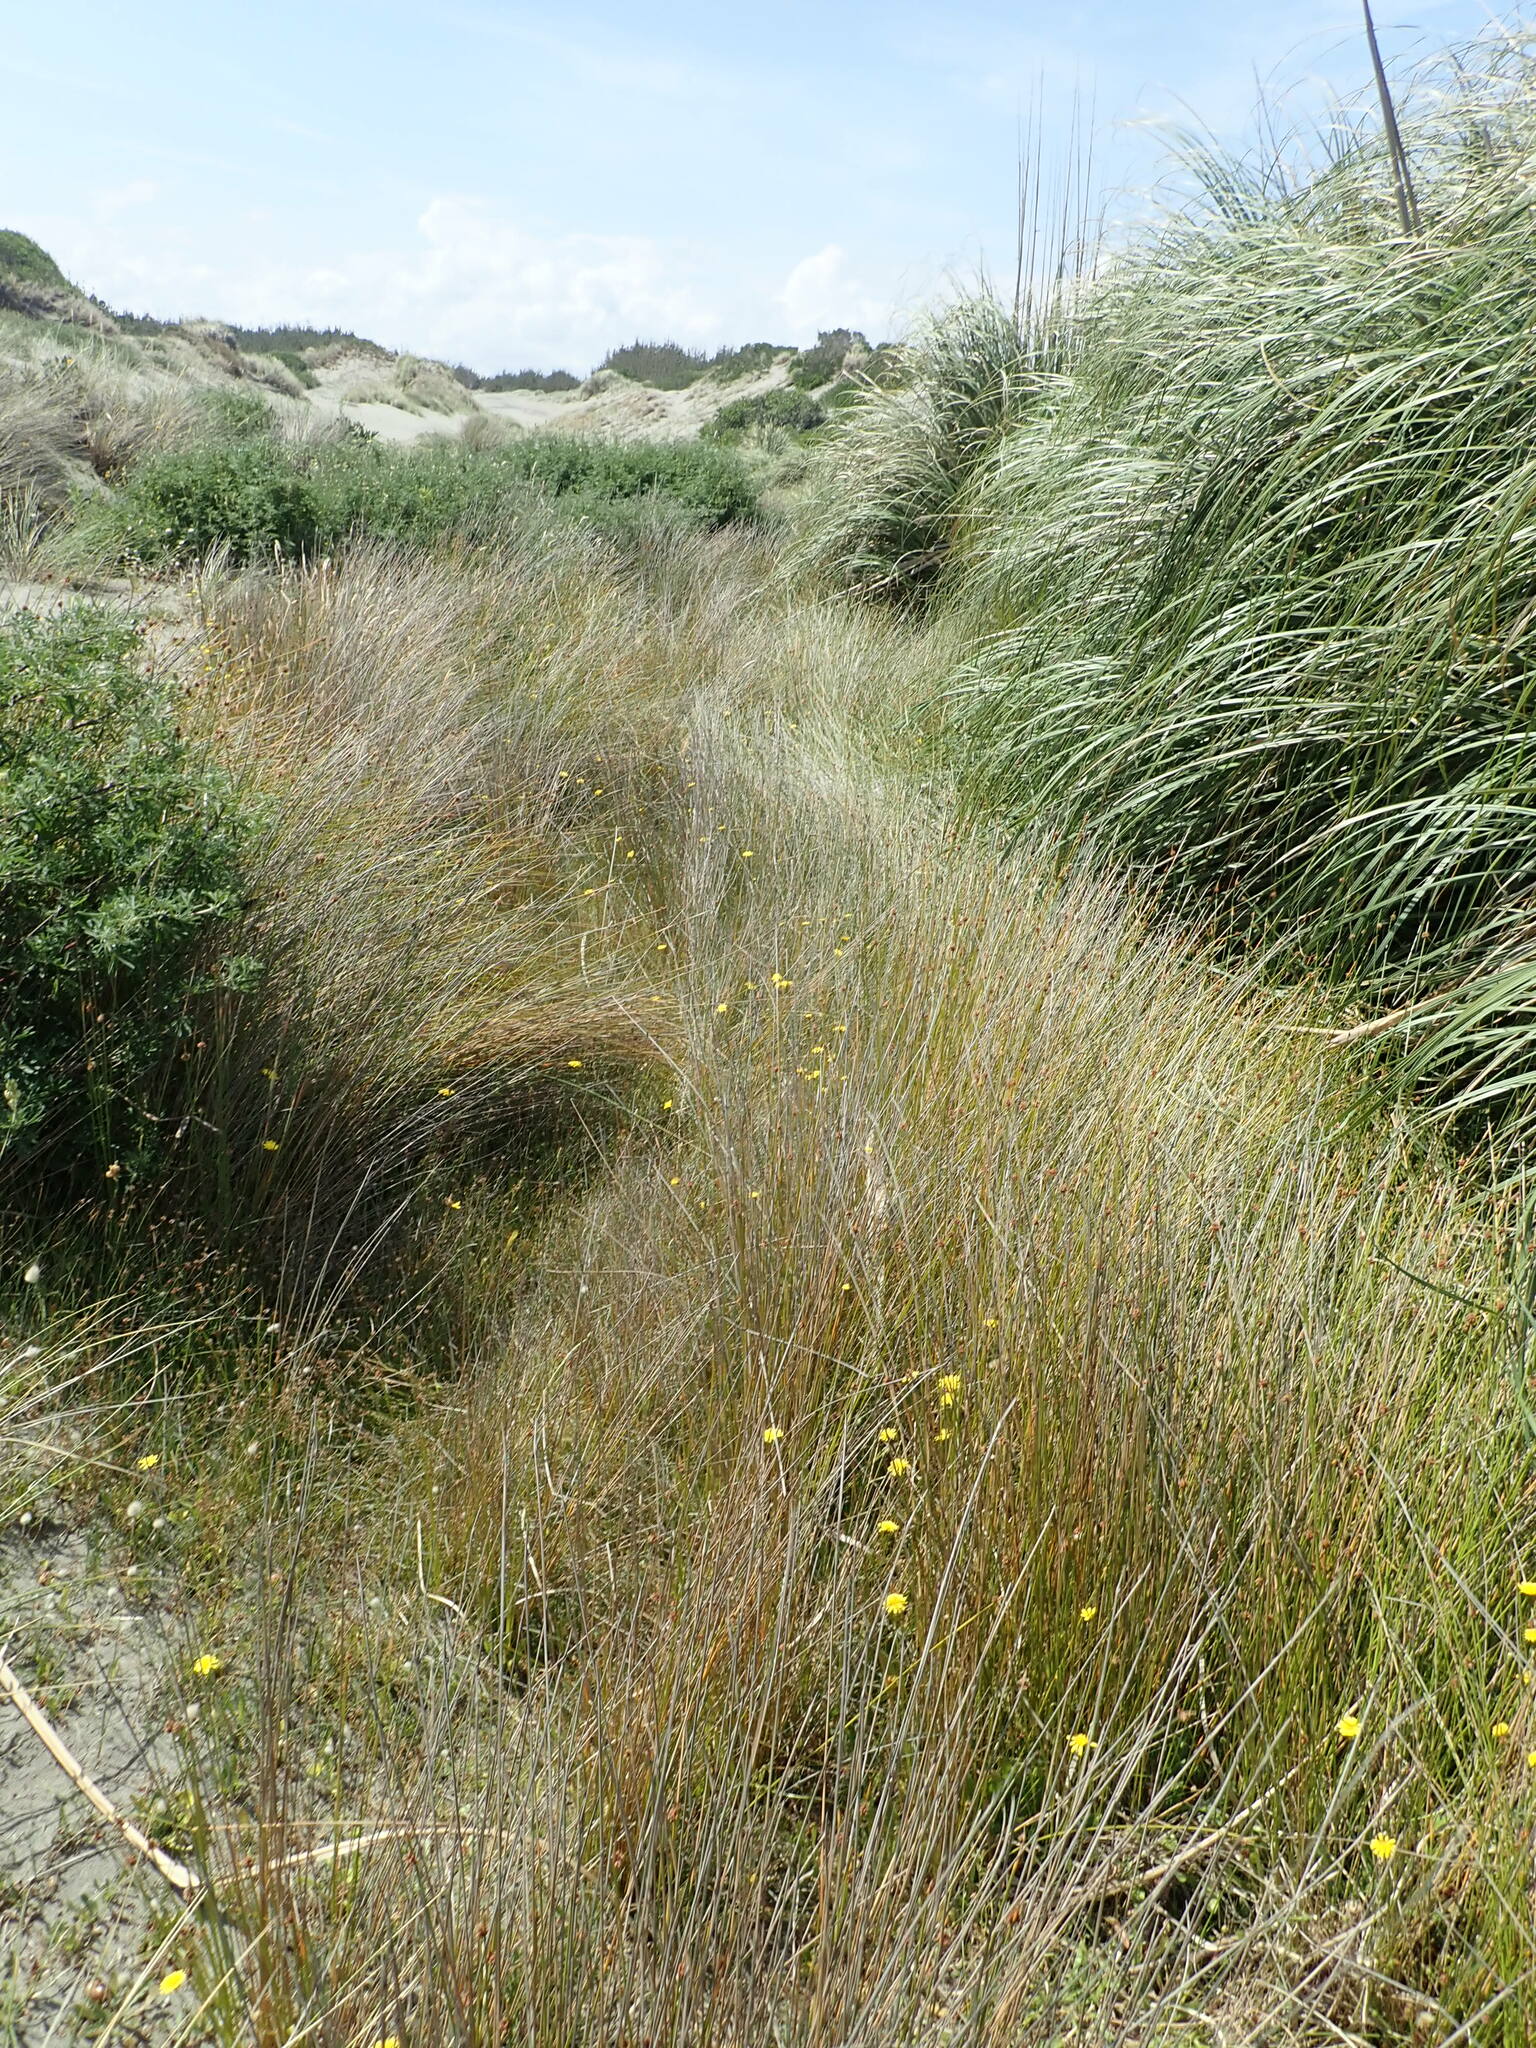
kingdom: Plantae
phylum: Tracheophyta
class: Liliopsida
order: Poales
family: Cyperaceae
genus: Ficinia
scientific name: Ficinia nodosa
